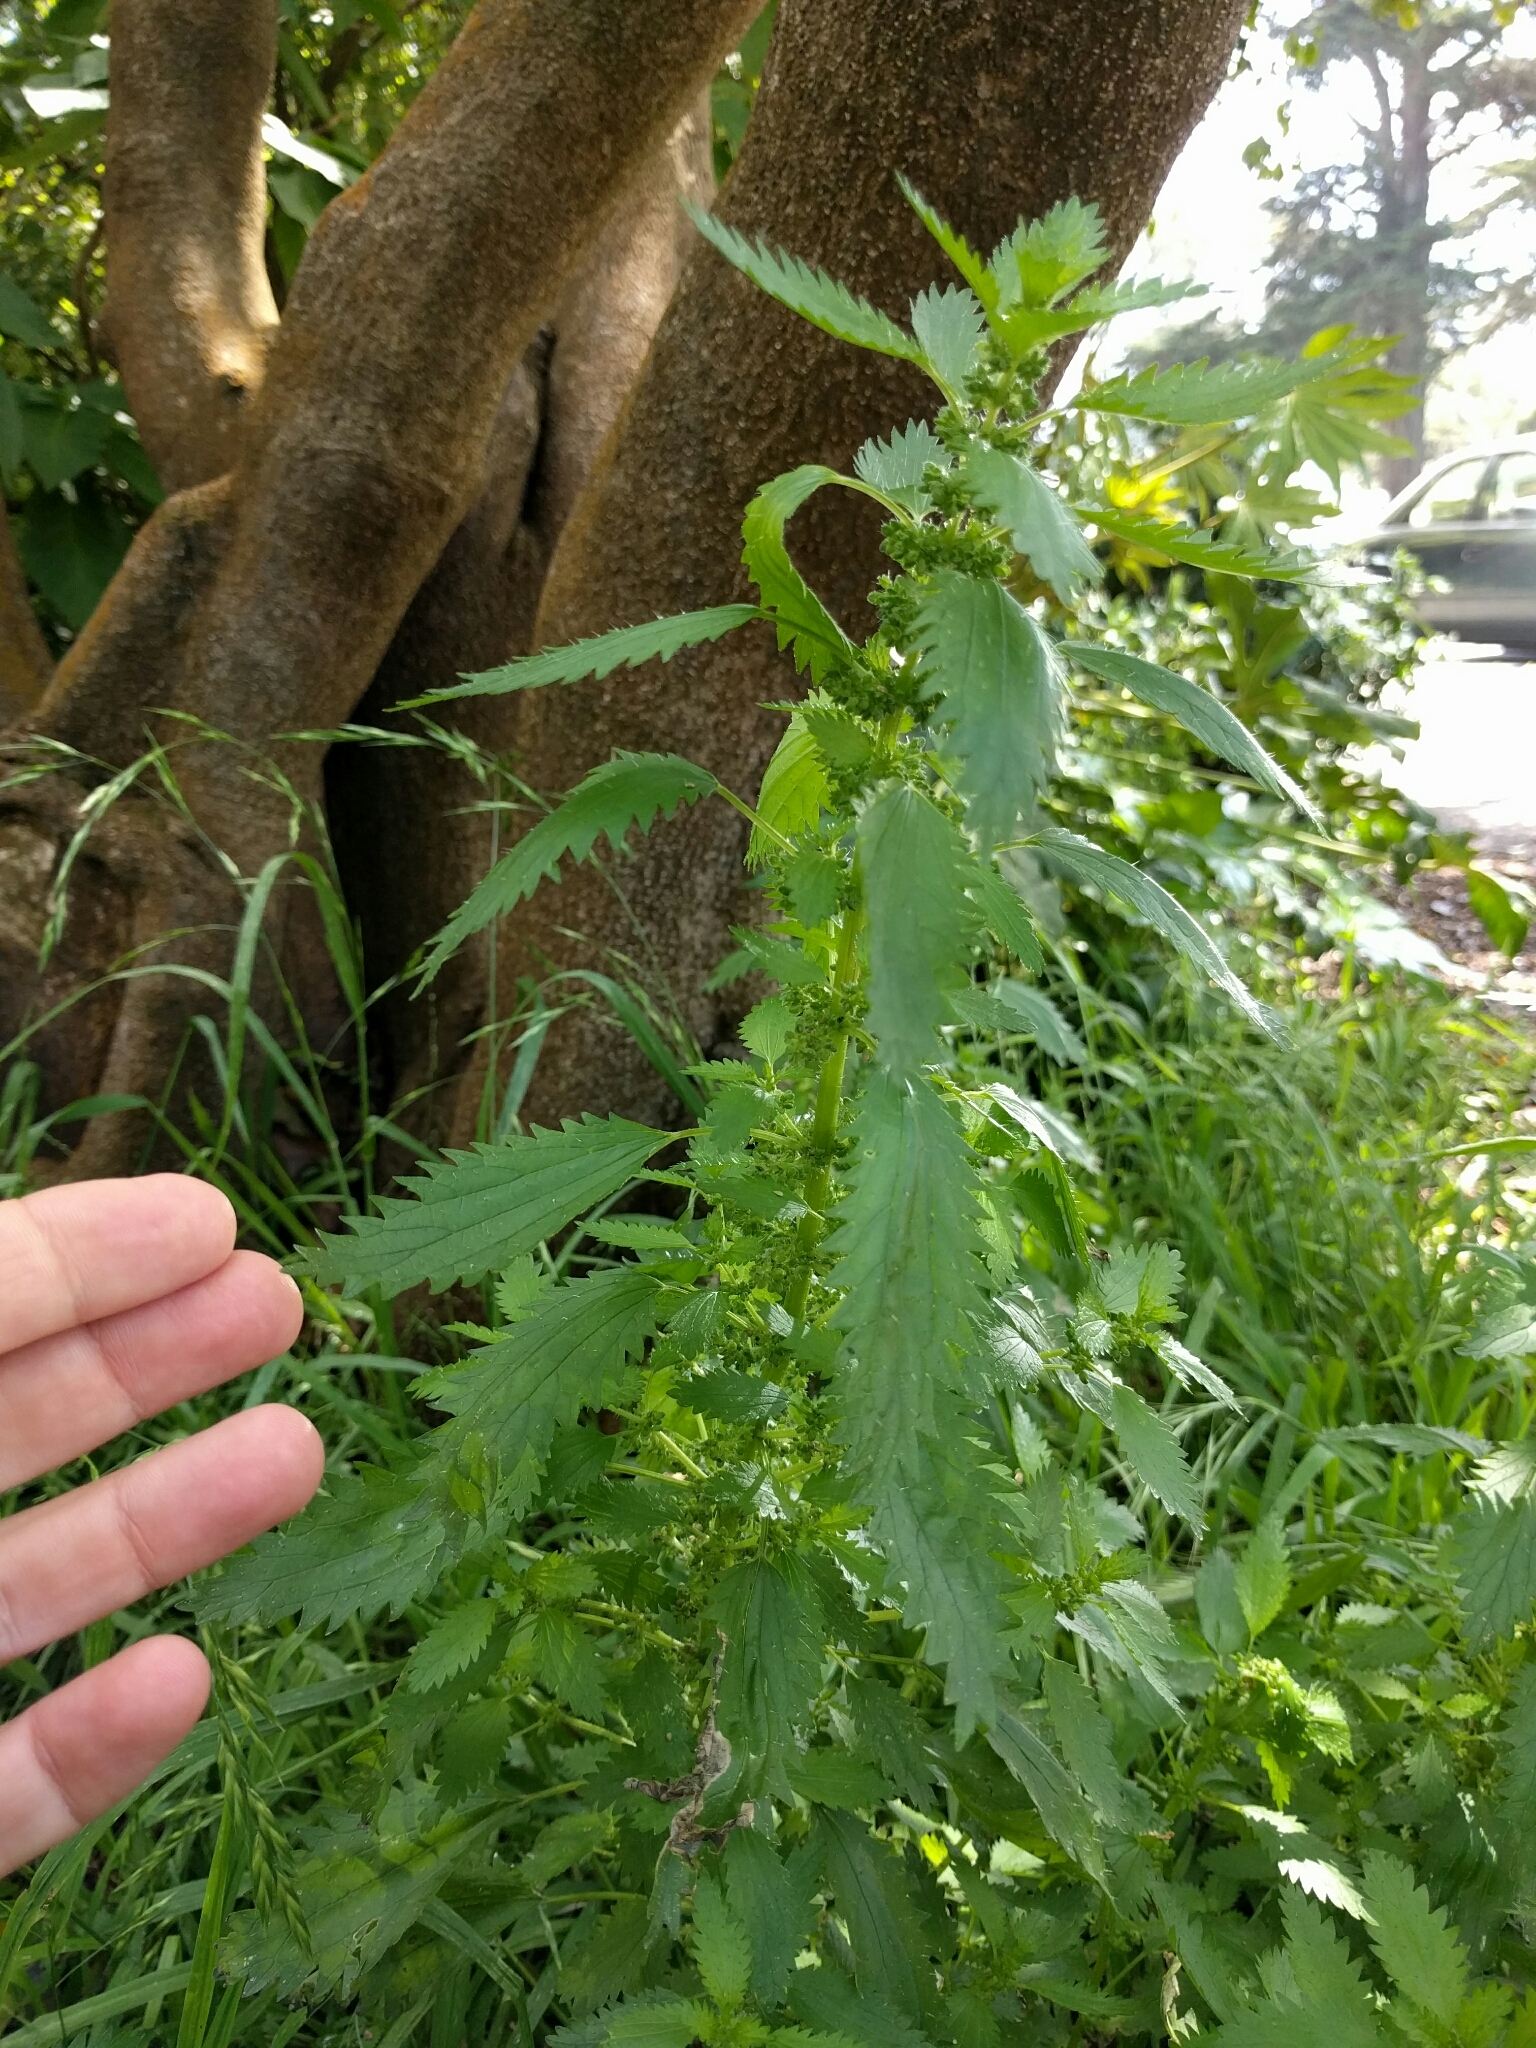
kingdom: Plantae
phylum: Tracheophyta
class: Magnoliopsida
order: Rosales
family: Urticaceae
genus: Urtica
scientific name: Urtica urens
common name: Dwarf nettle
